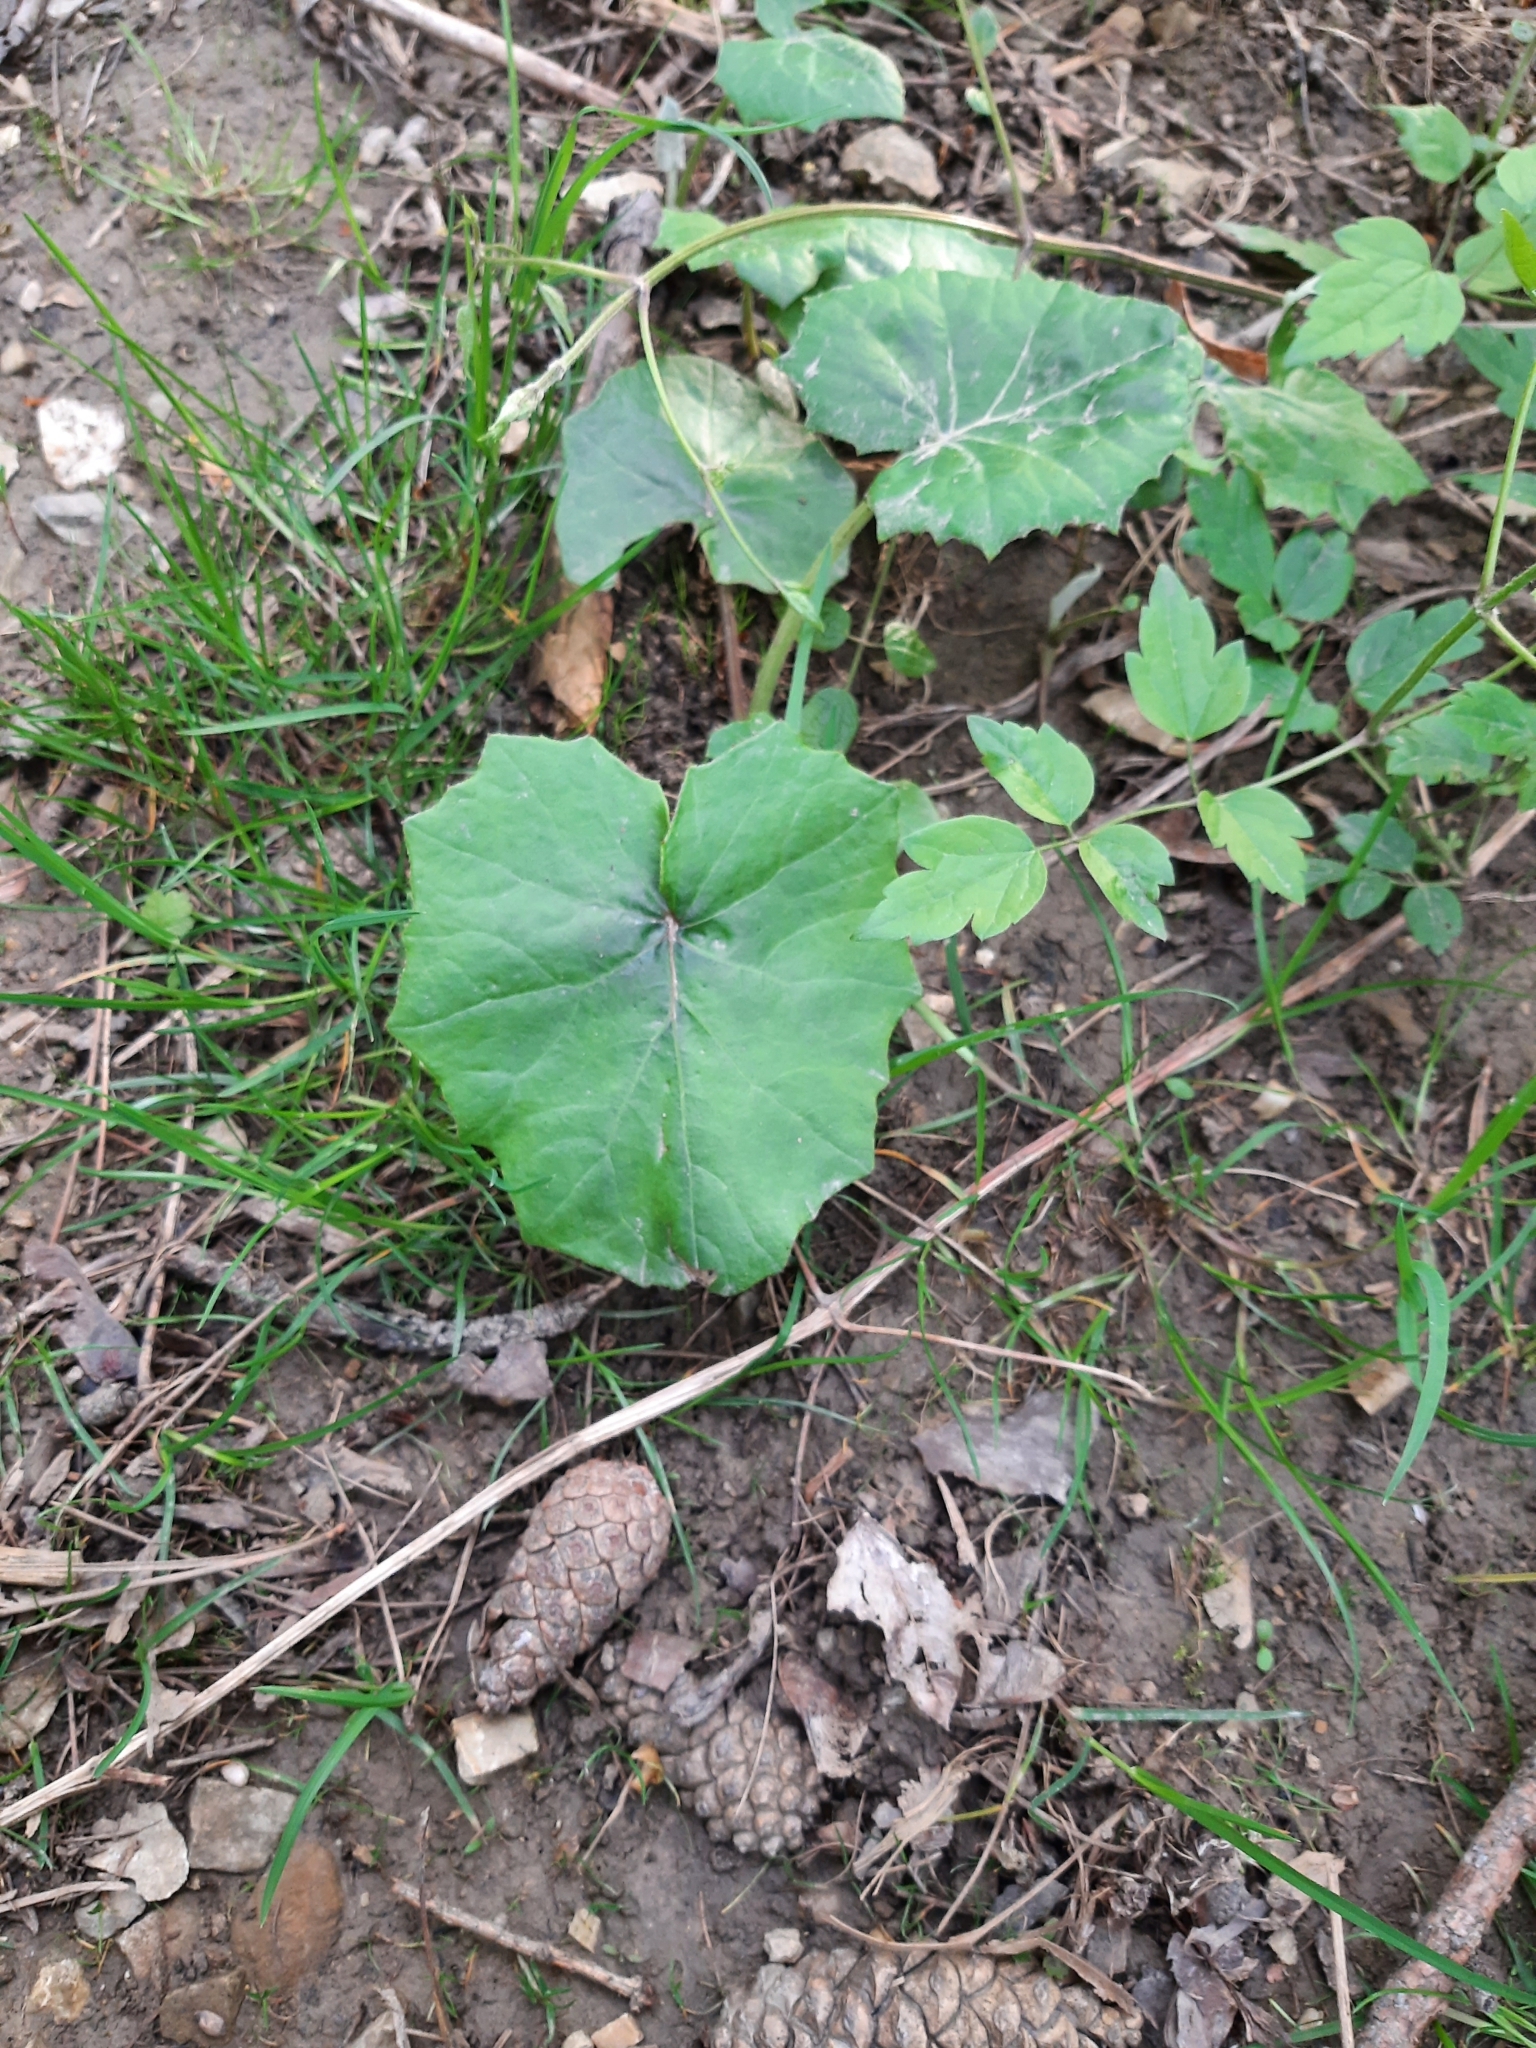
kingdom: Plantae
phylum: Tracheophyta
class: Magnoliopsida
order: Asterales
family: Asteraceae
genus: Tussilago
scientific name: Tussilago farfara
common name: Coltsfoot
